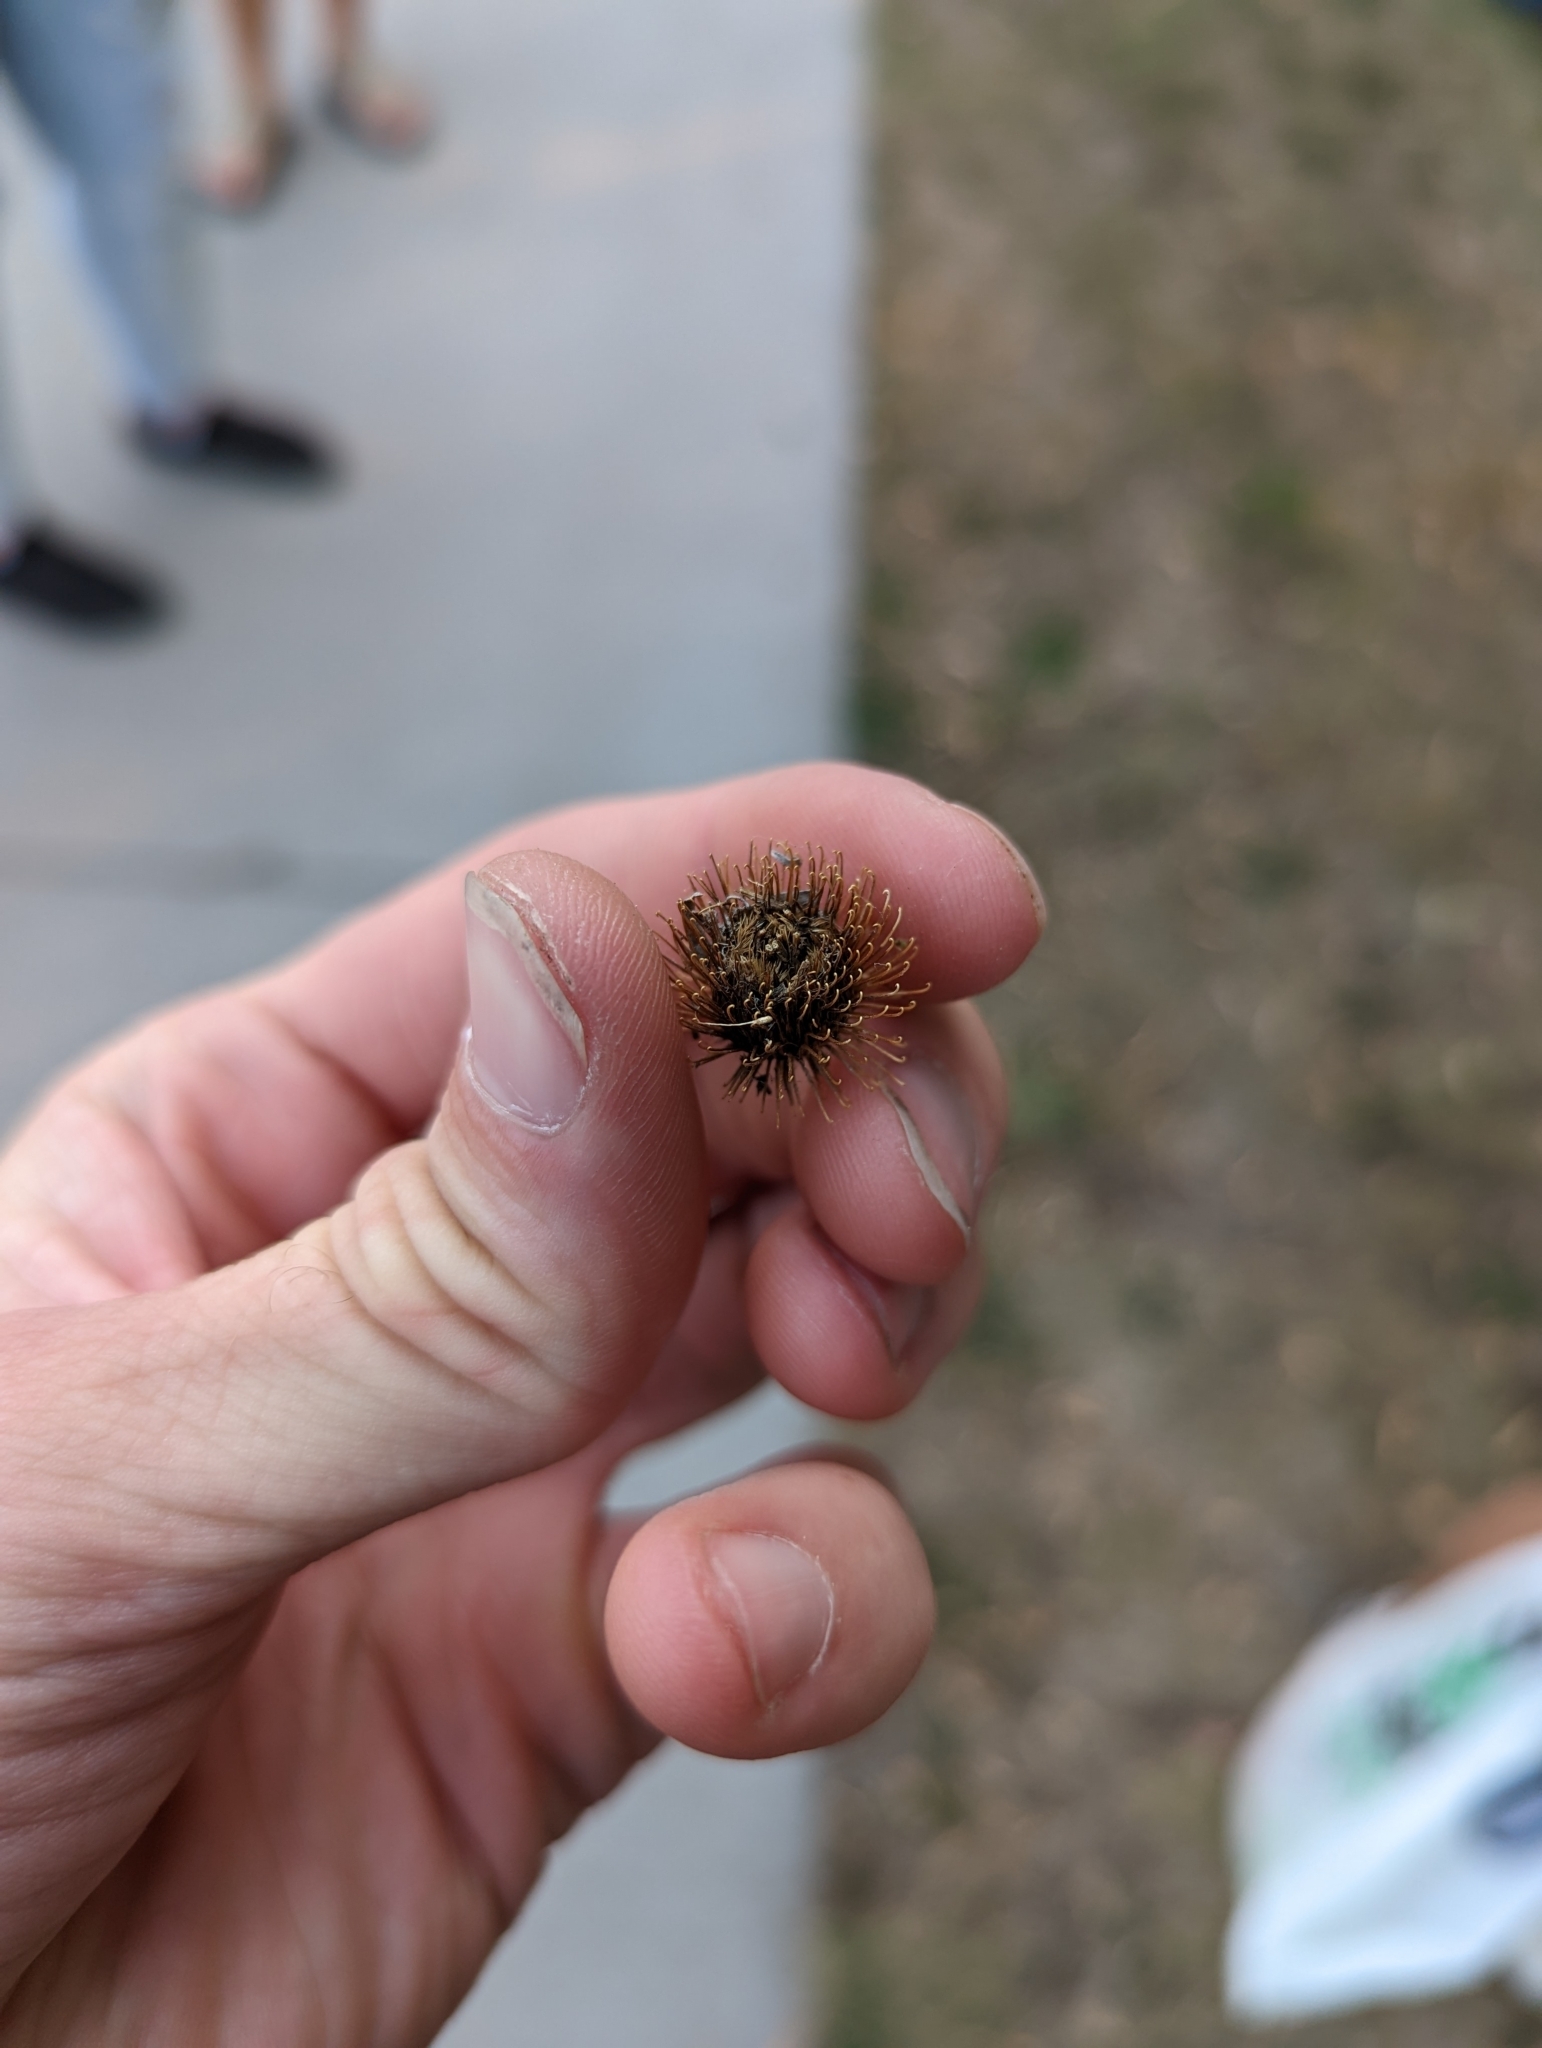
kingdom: Plantae
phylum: Tracheophyta
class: Magnoliopsida
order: Asterales
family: Asteraceae
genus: Xanthium
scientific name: Xanthium strumarium
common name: Rough cocklebur
